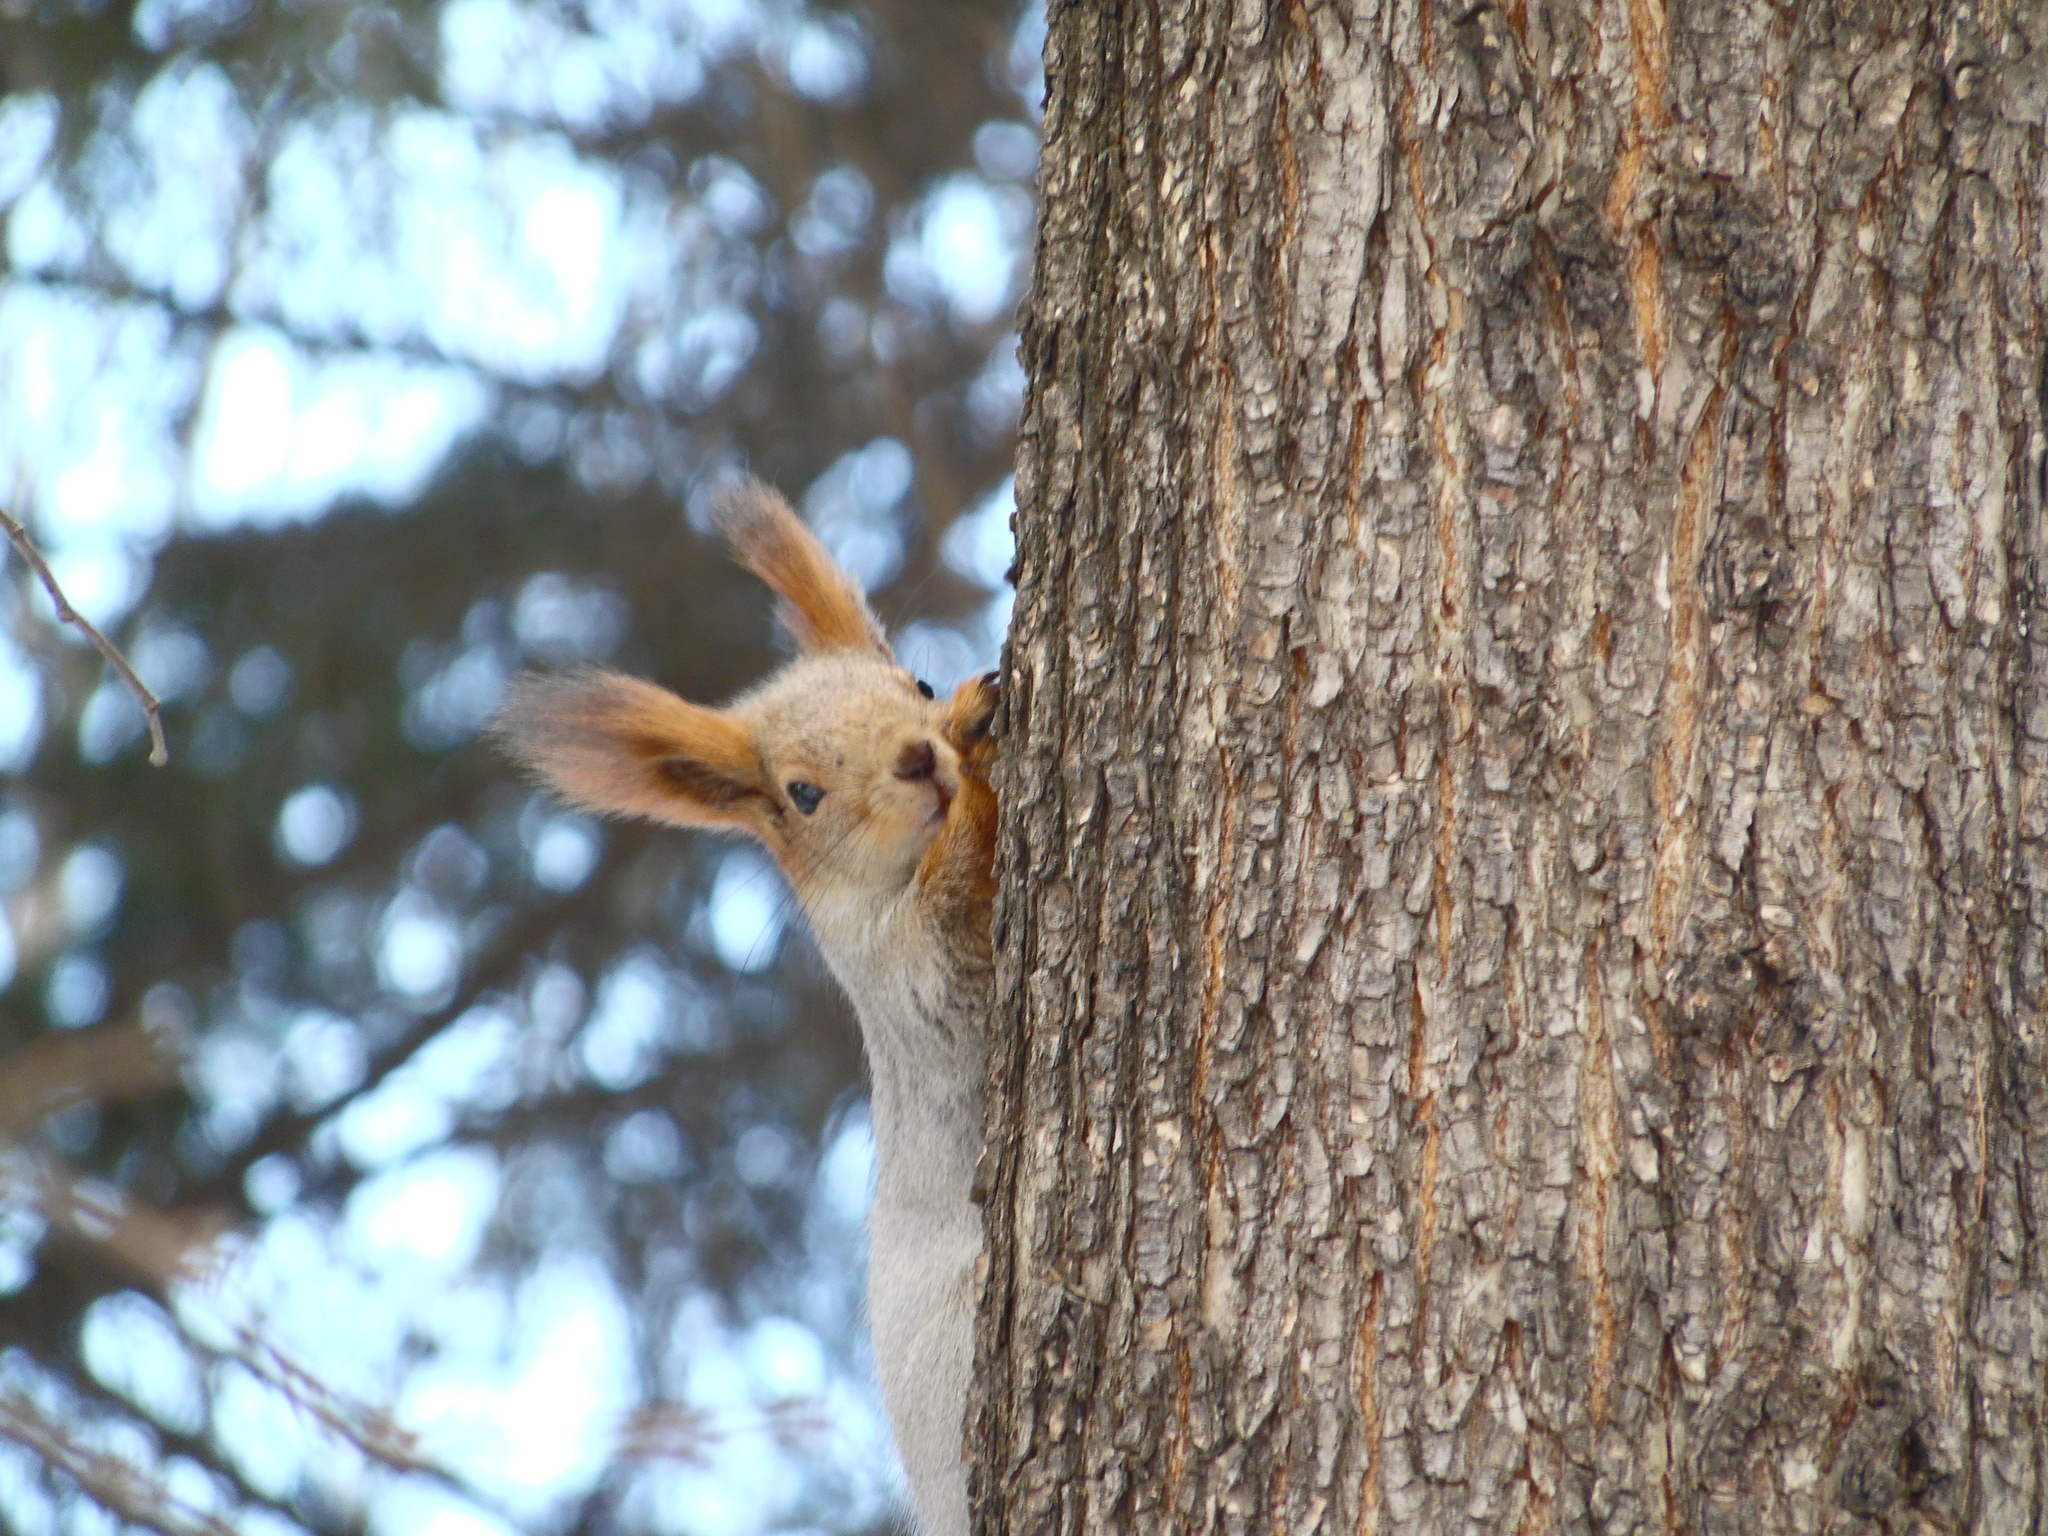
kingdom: Animalia
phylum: Chordata
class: Mammalia
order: Rodentia
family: Sciuridae
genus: Sciurus
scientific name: Sciurus vulgaris
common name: Eurasian red squirrel
